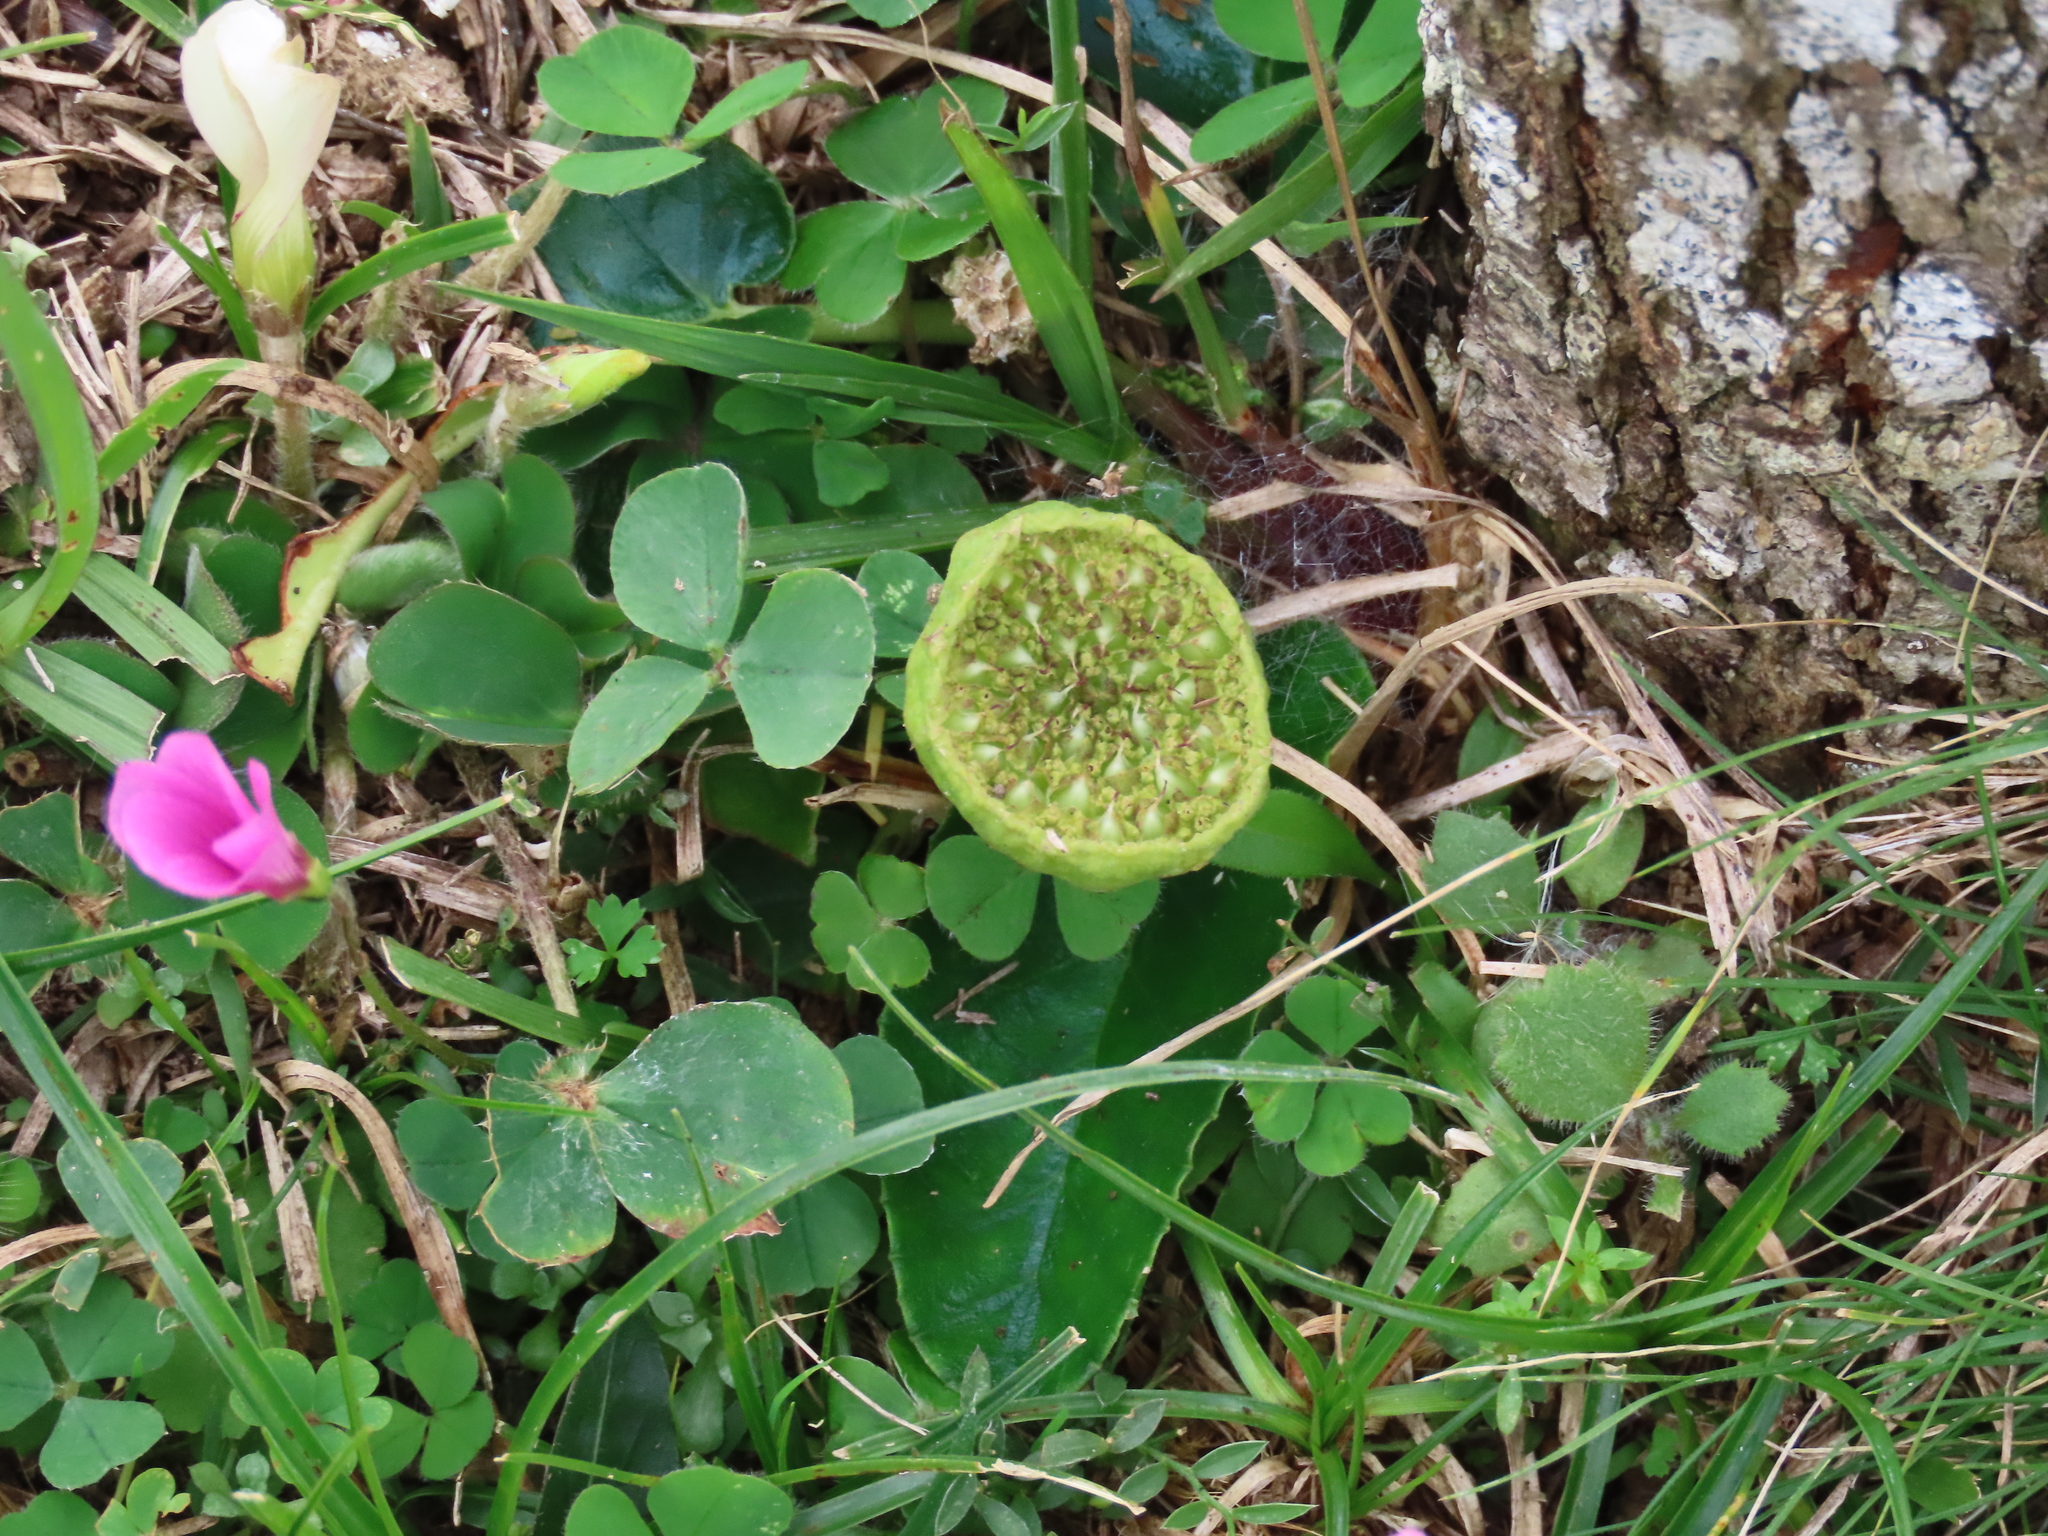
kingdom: Plantae
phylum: Tracheophyta
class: Magnoliopsida
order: Rosales
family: Moraceae
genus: Dorstenia
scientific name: Dorstenia brasiliensis
